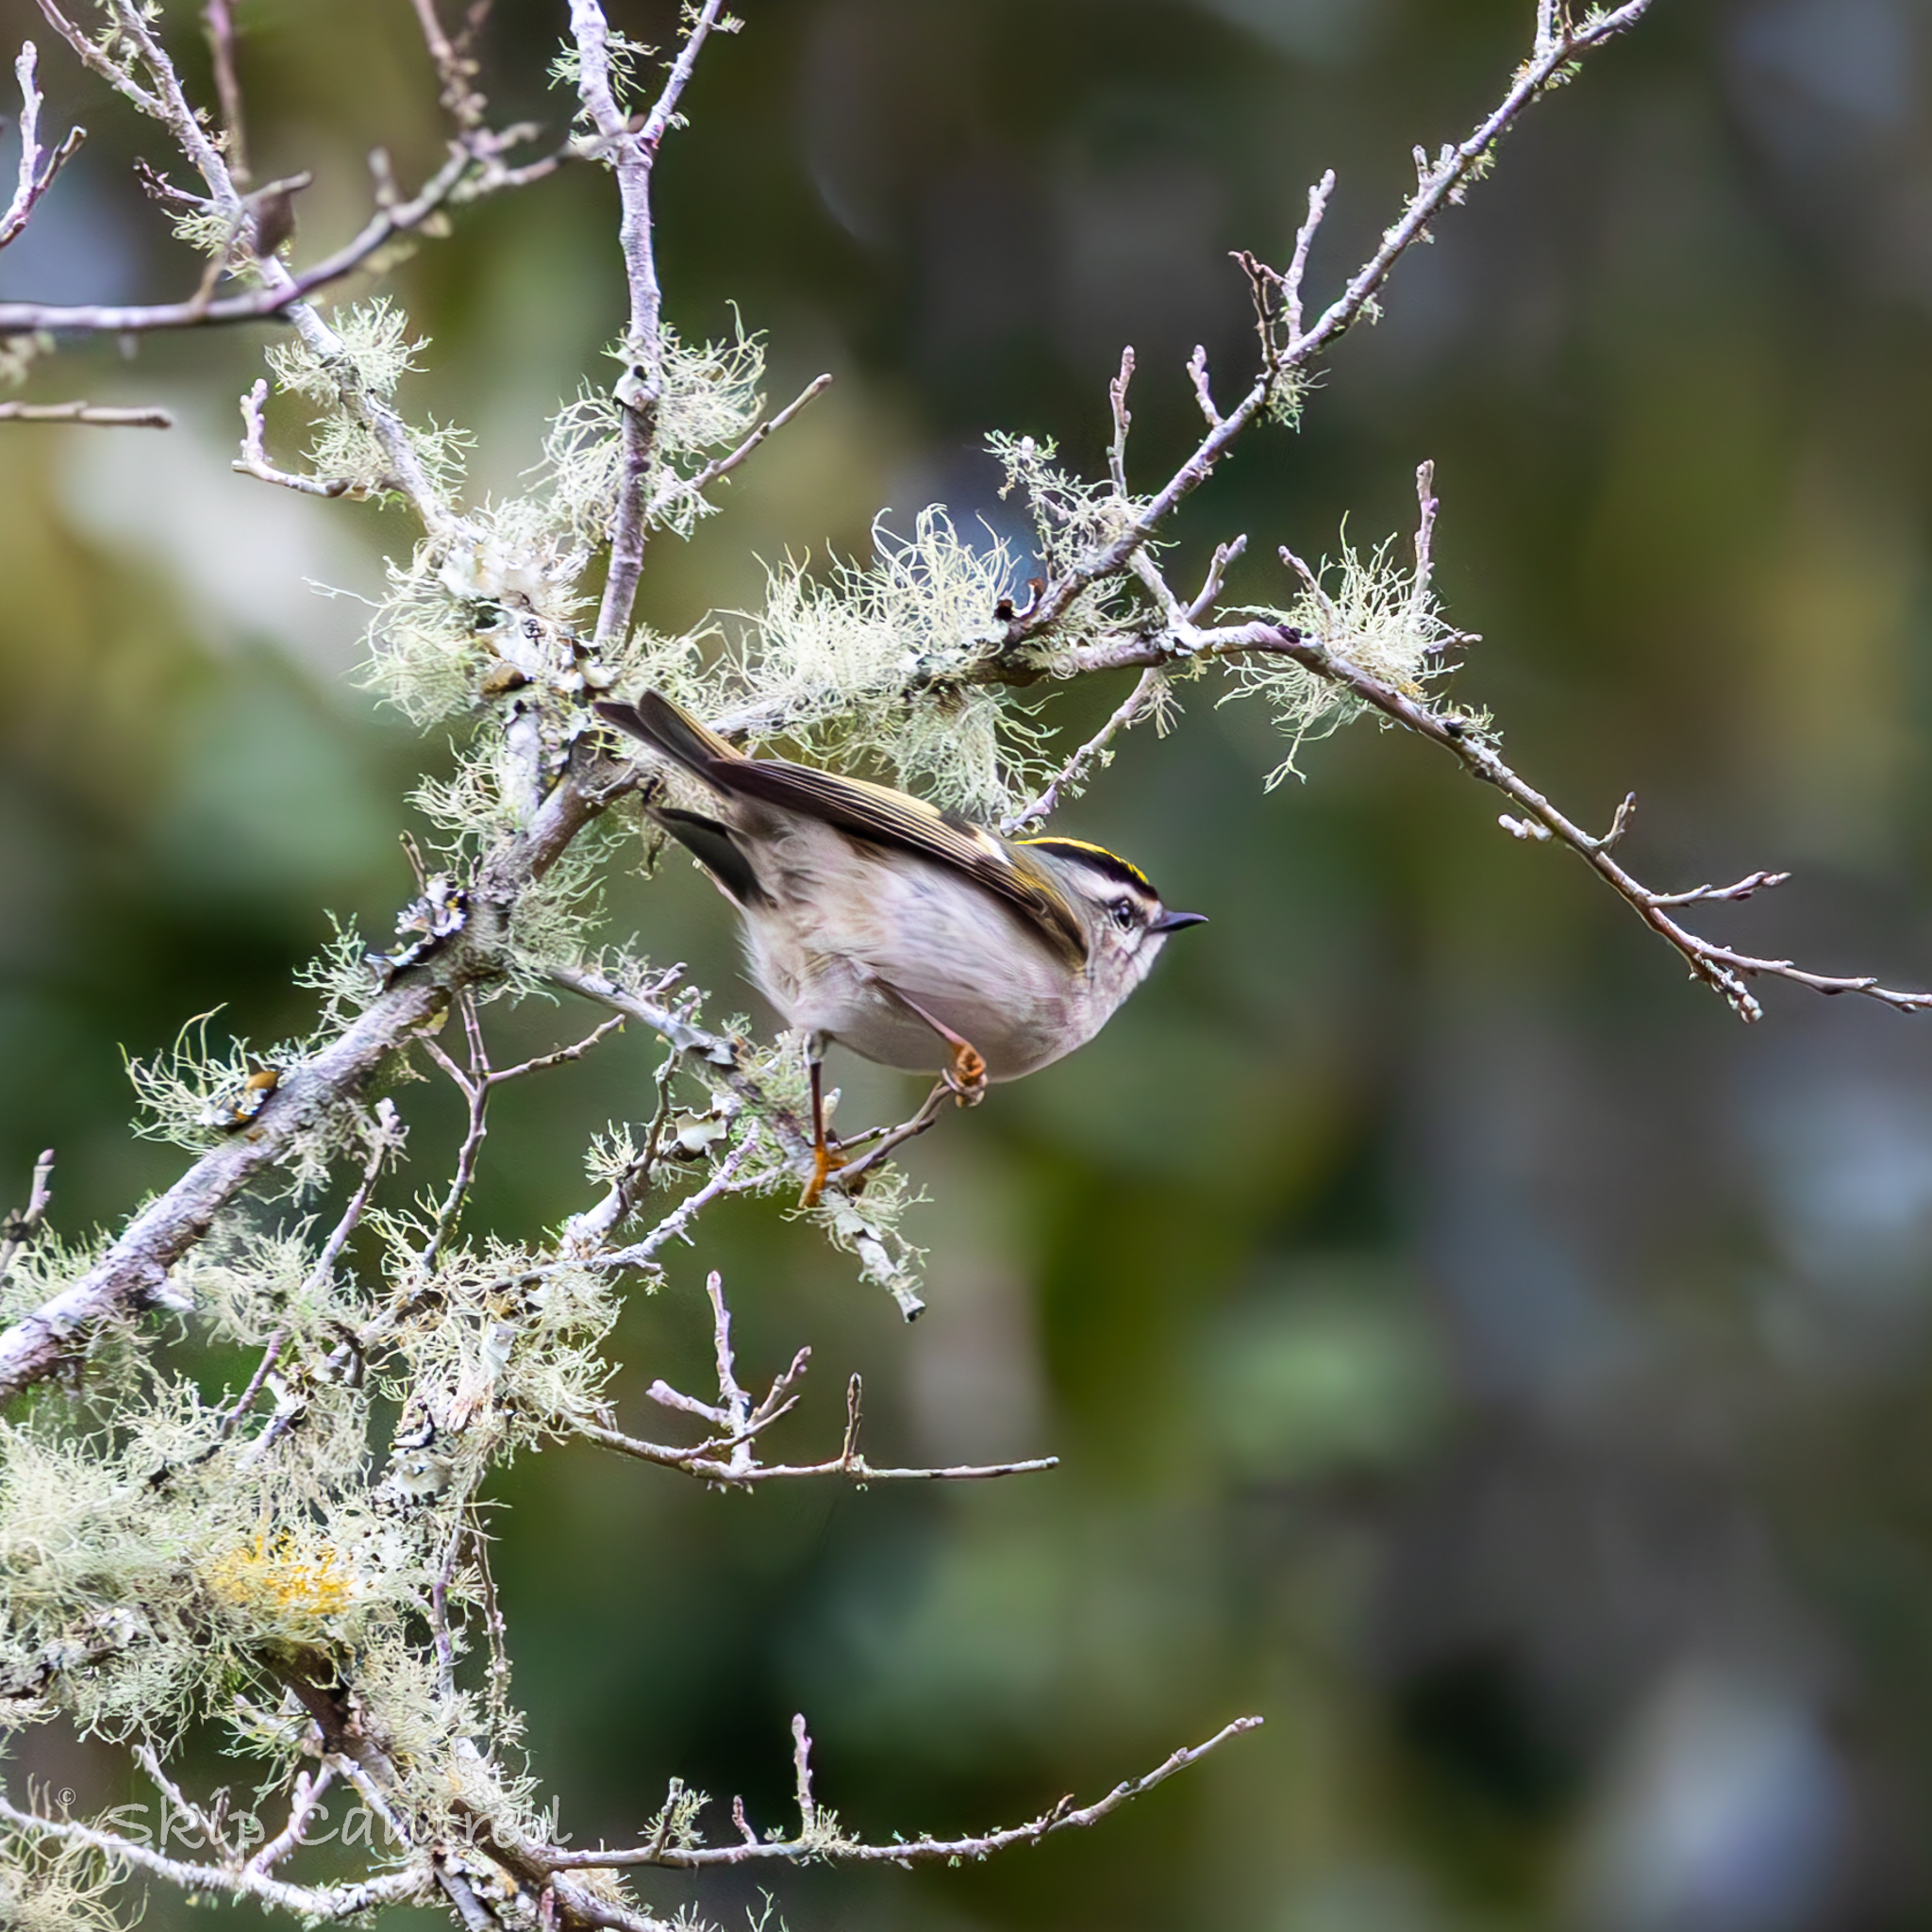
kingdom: Animalia
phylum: Chordata
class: Aves
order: Passeriformes
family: Regulidae
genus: Regulus
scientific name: Regulus satrapa
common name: Golden-crowned kinglet
